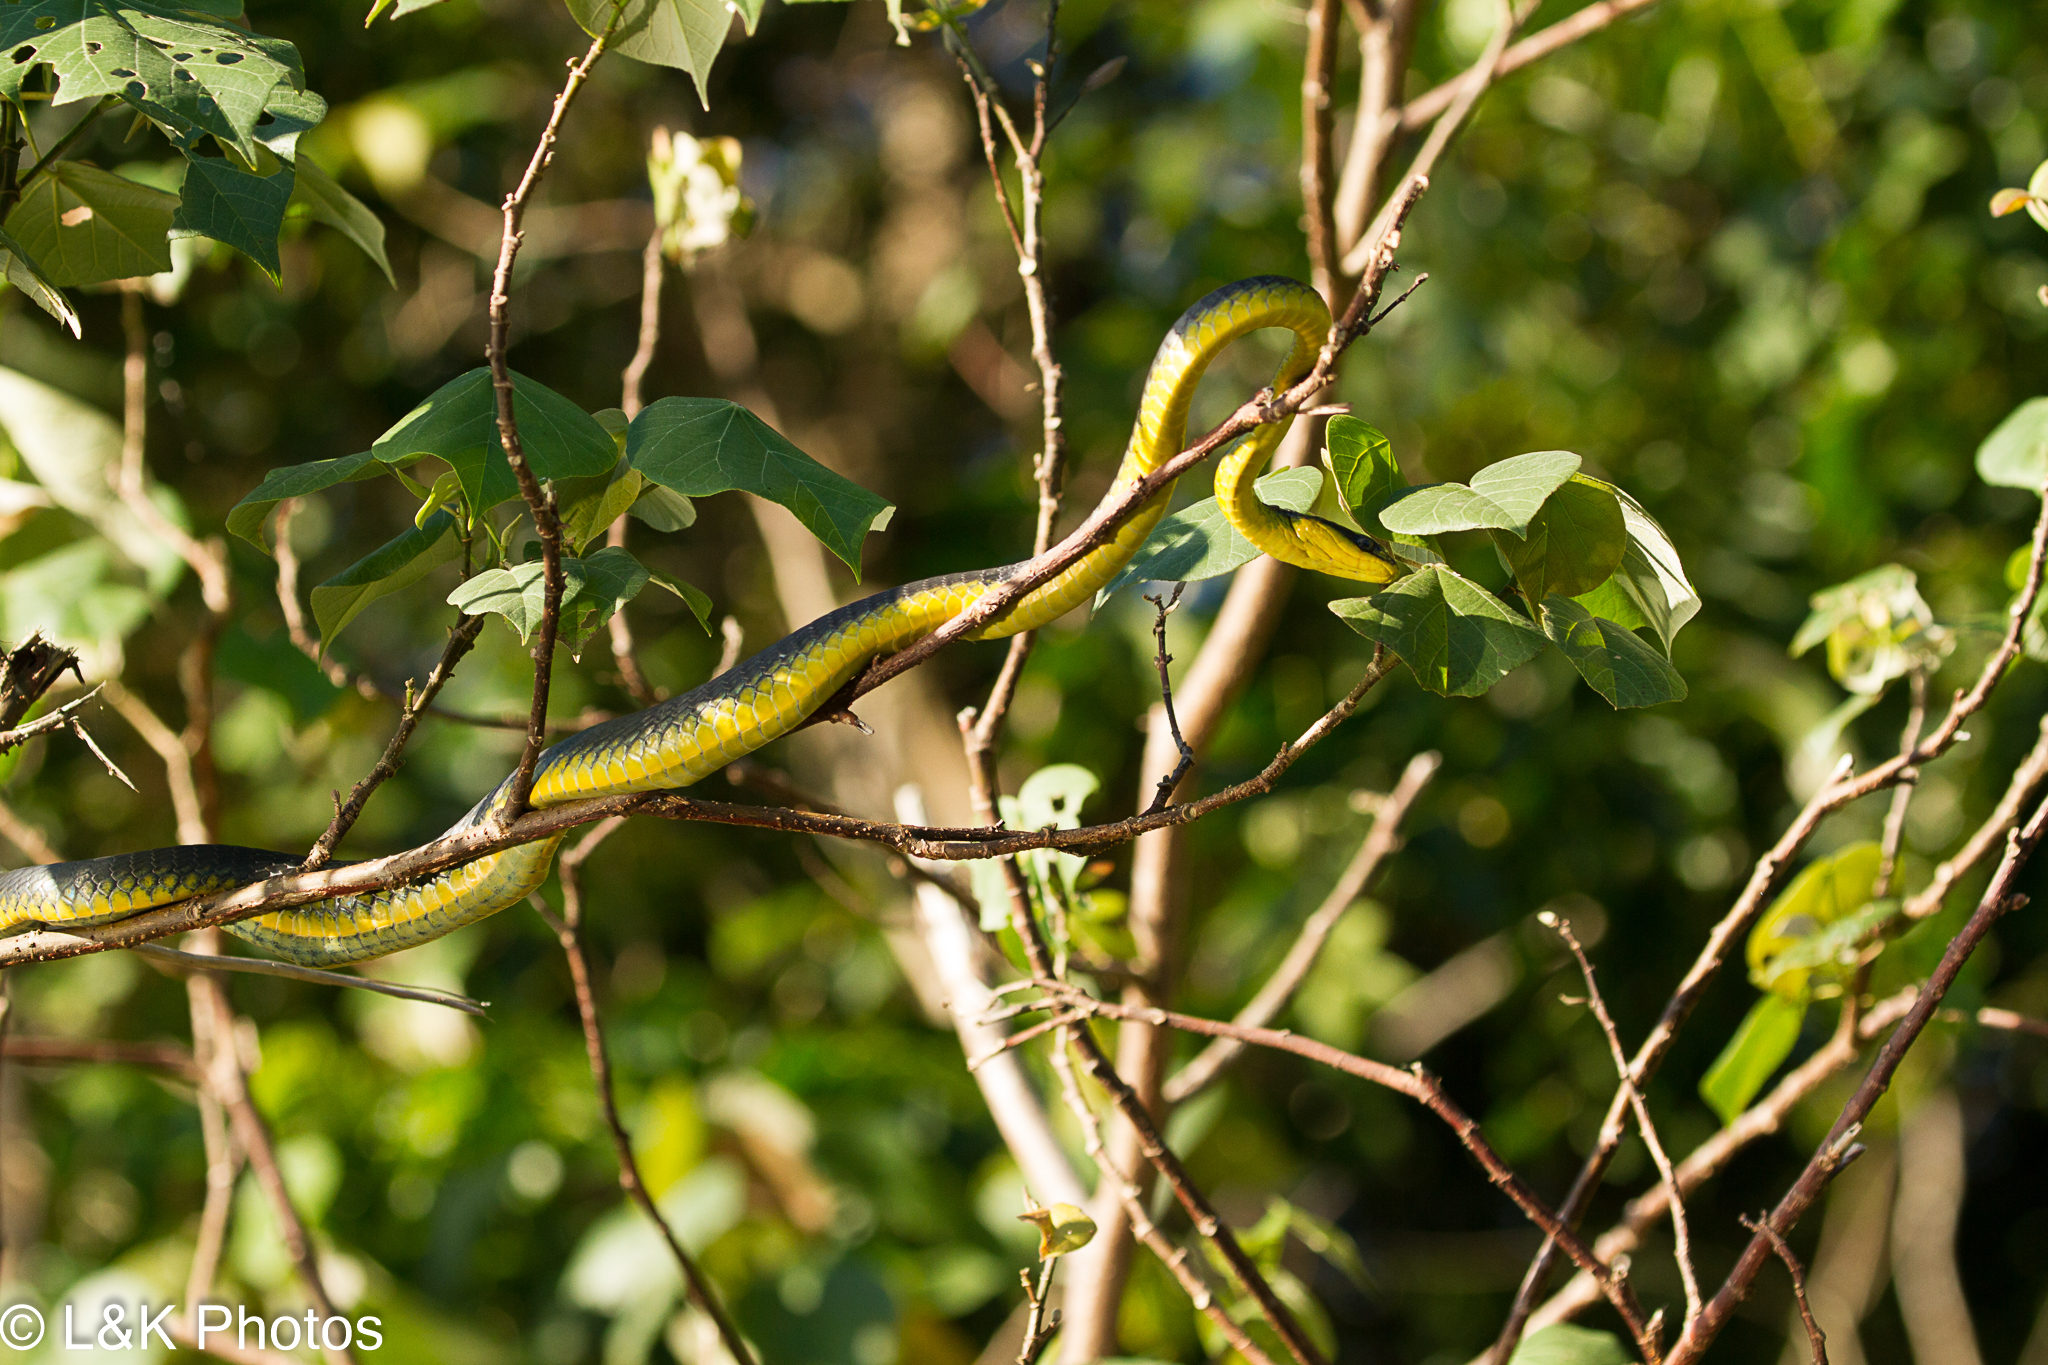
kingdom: Animalia
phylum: Chordata
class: Squamata
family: Colubridae
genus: Dendrelaphis
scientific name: Dendrelaphis punctulatus
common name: Common tree snake
